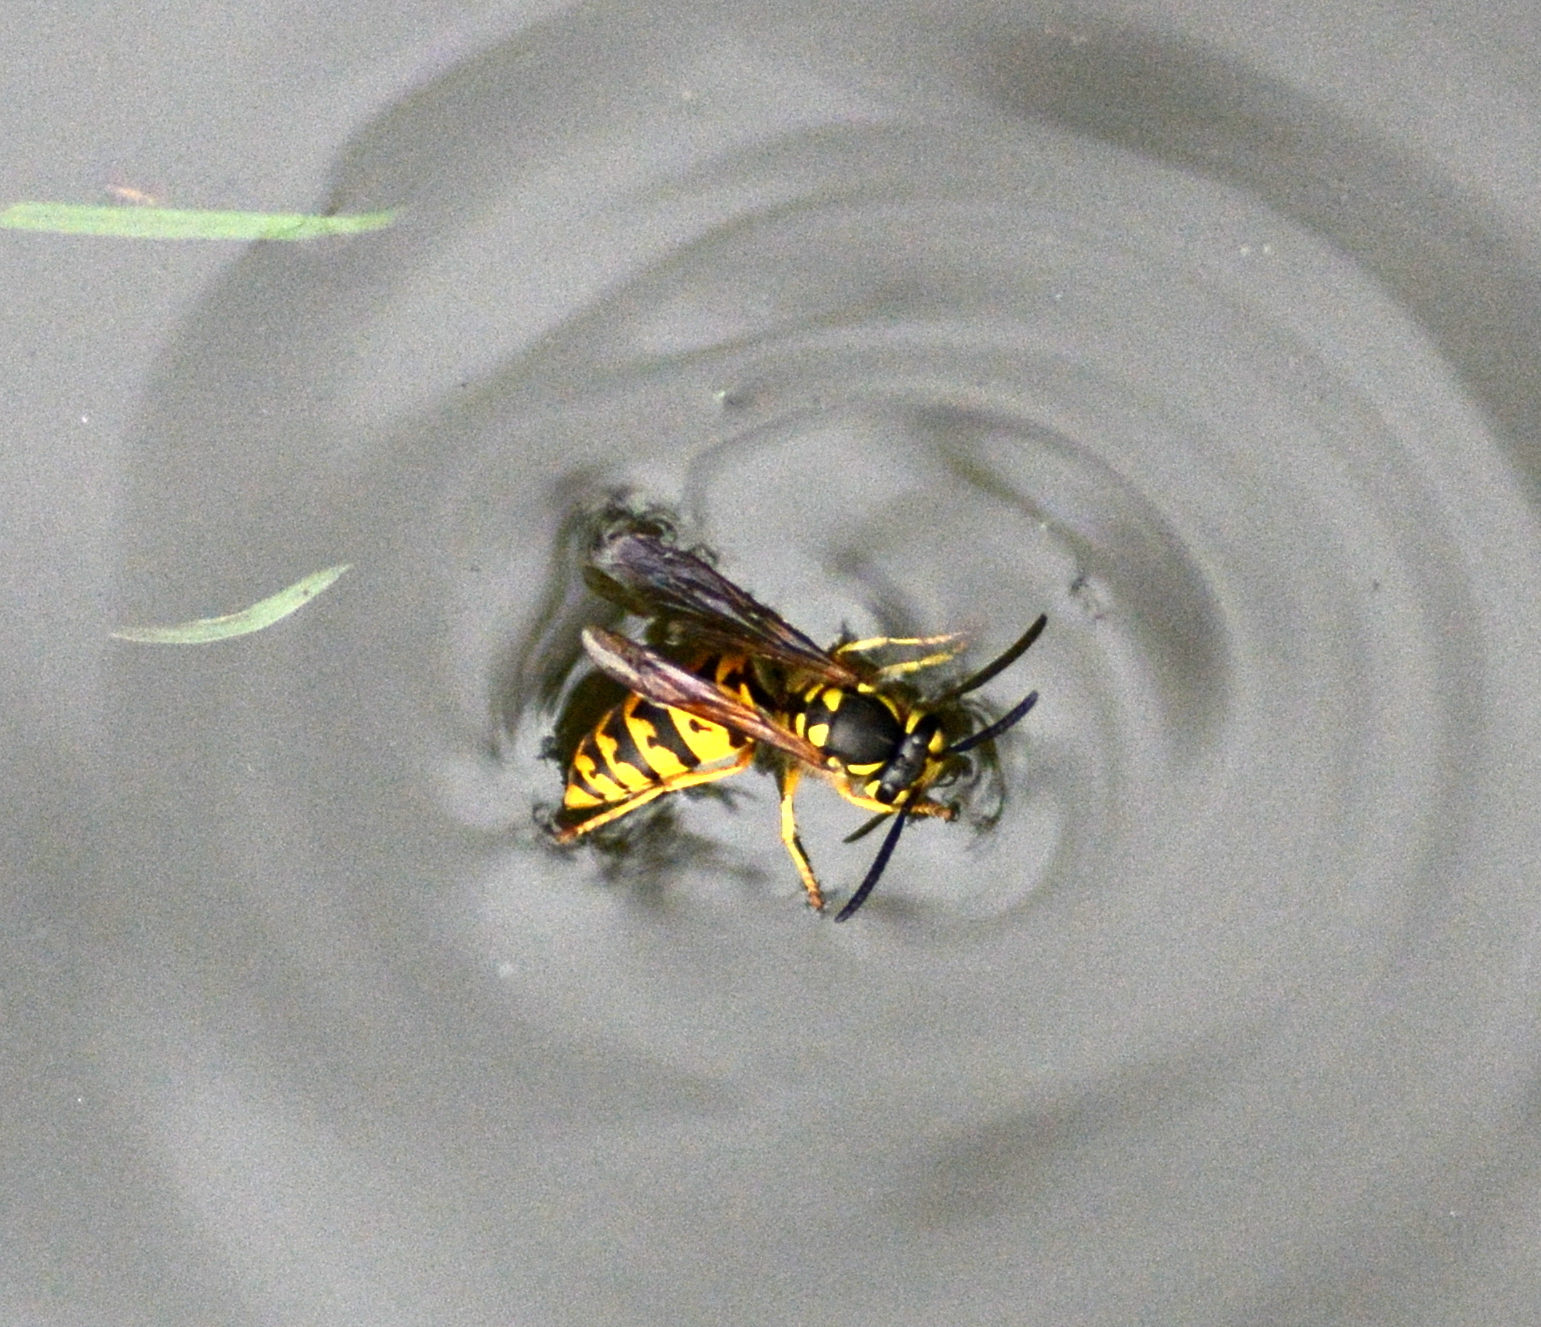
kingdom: Animalia
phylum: Arthropoda
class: Insecta
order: Hymenoptera
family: Vespidae
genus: Vespula
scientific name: Vespula germanica
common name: German wasp
